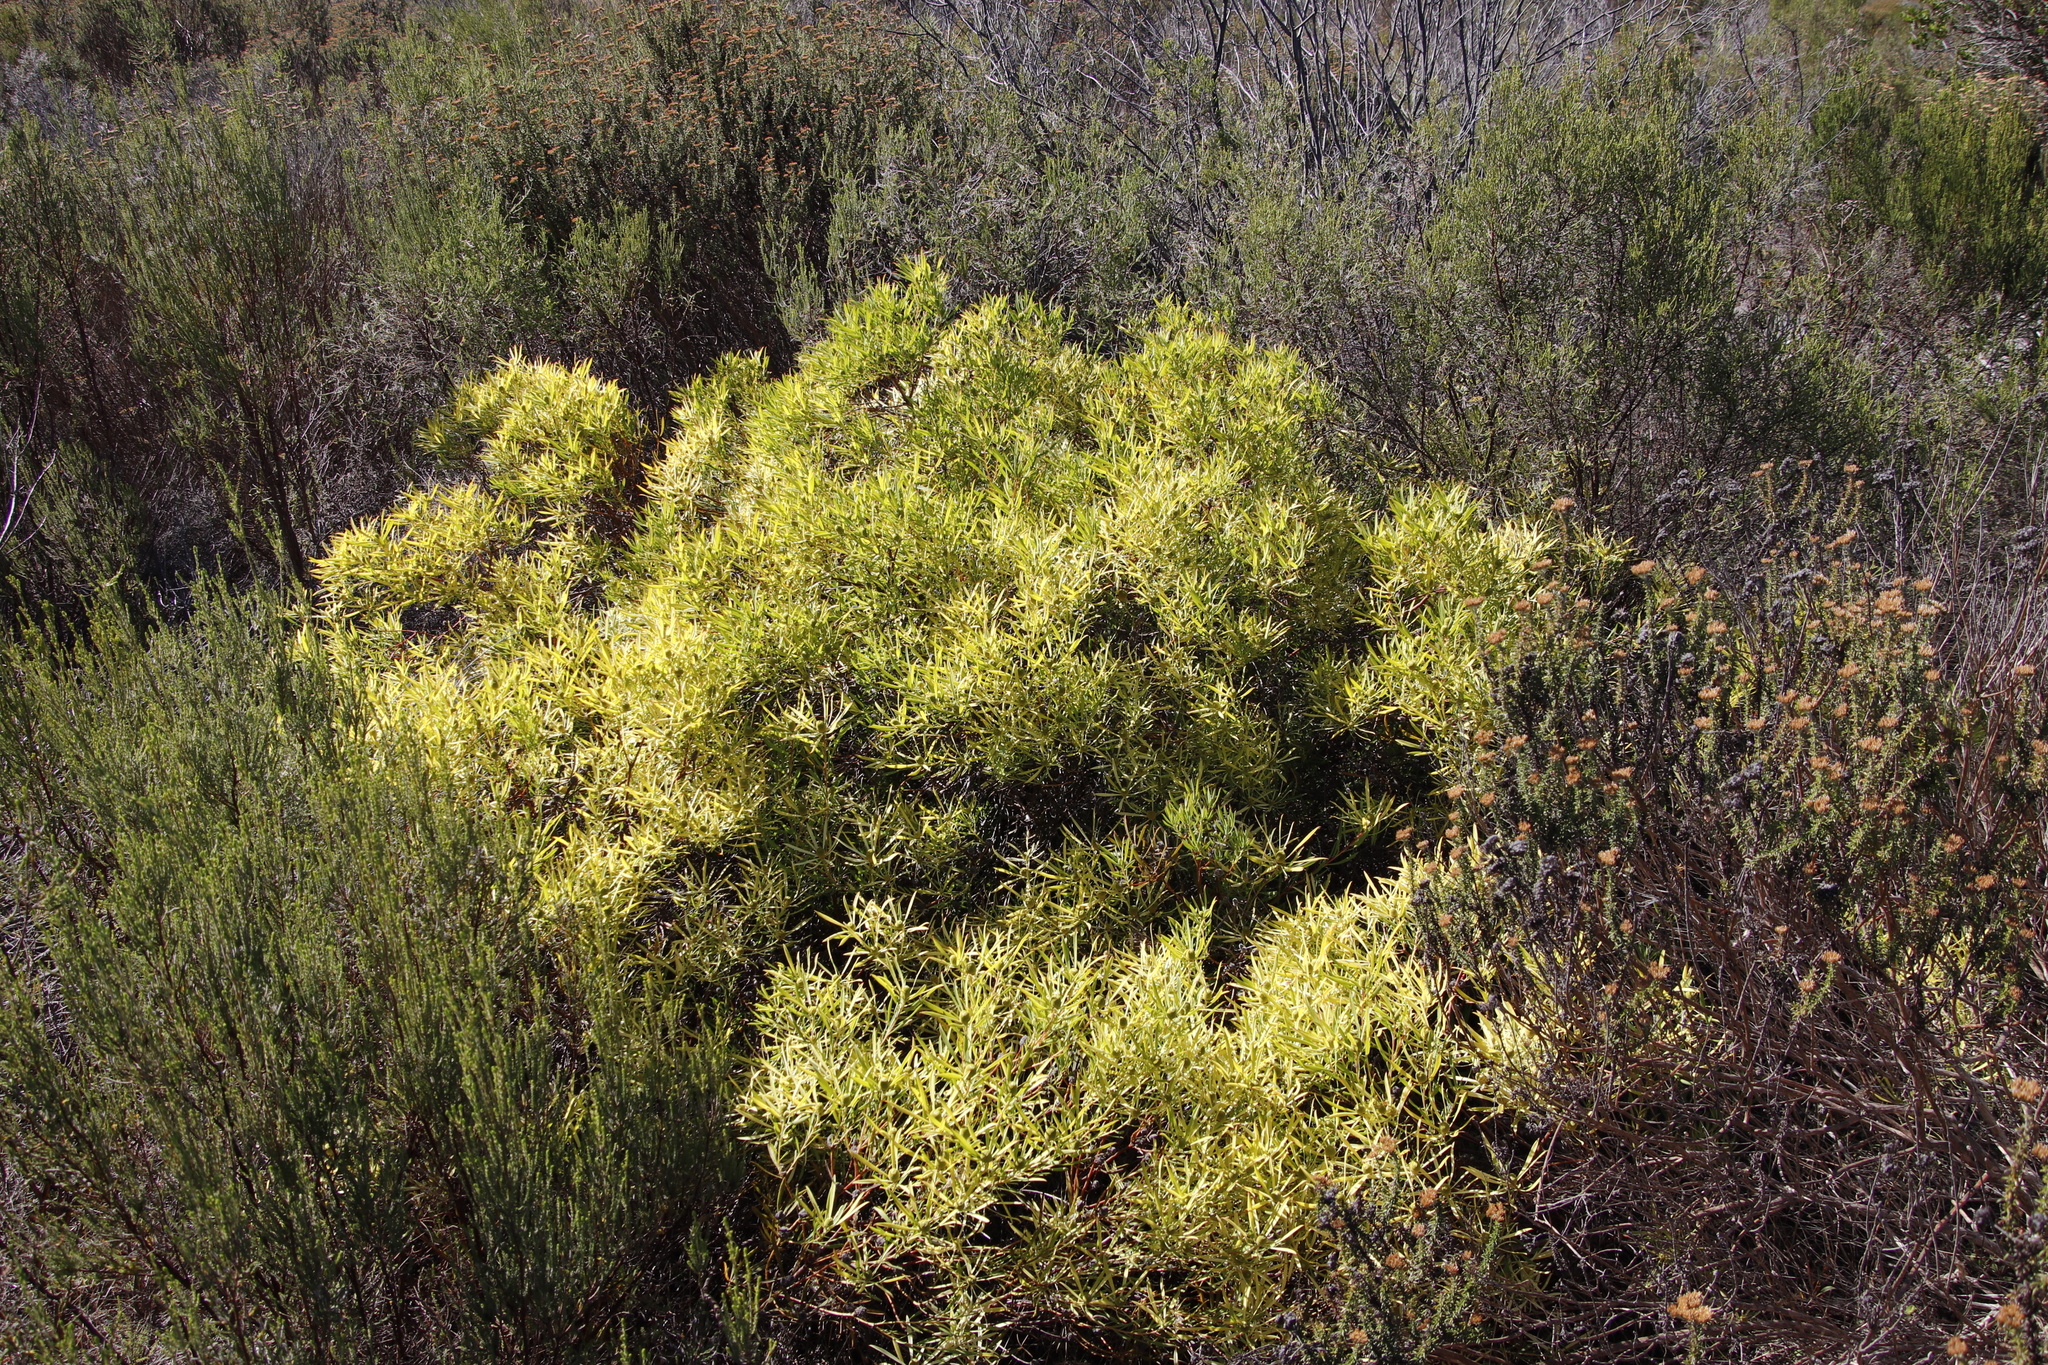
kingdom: Plantae
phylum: Tracheophyta
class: Magnoliopsida
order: Proteales
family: Proteaceae
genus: Leucadendron
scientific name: Leucadendron salignum
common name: Common sunshine conebush
